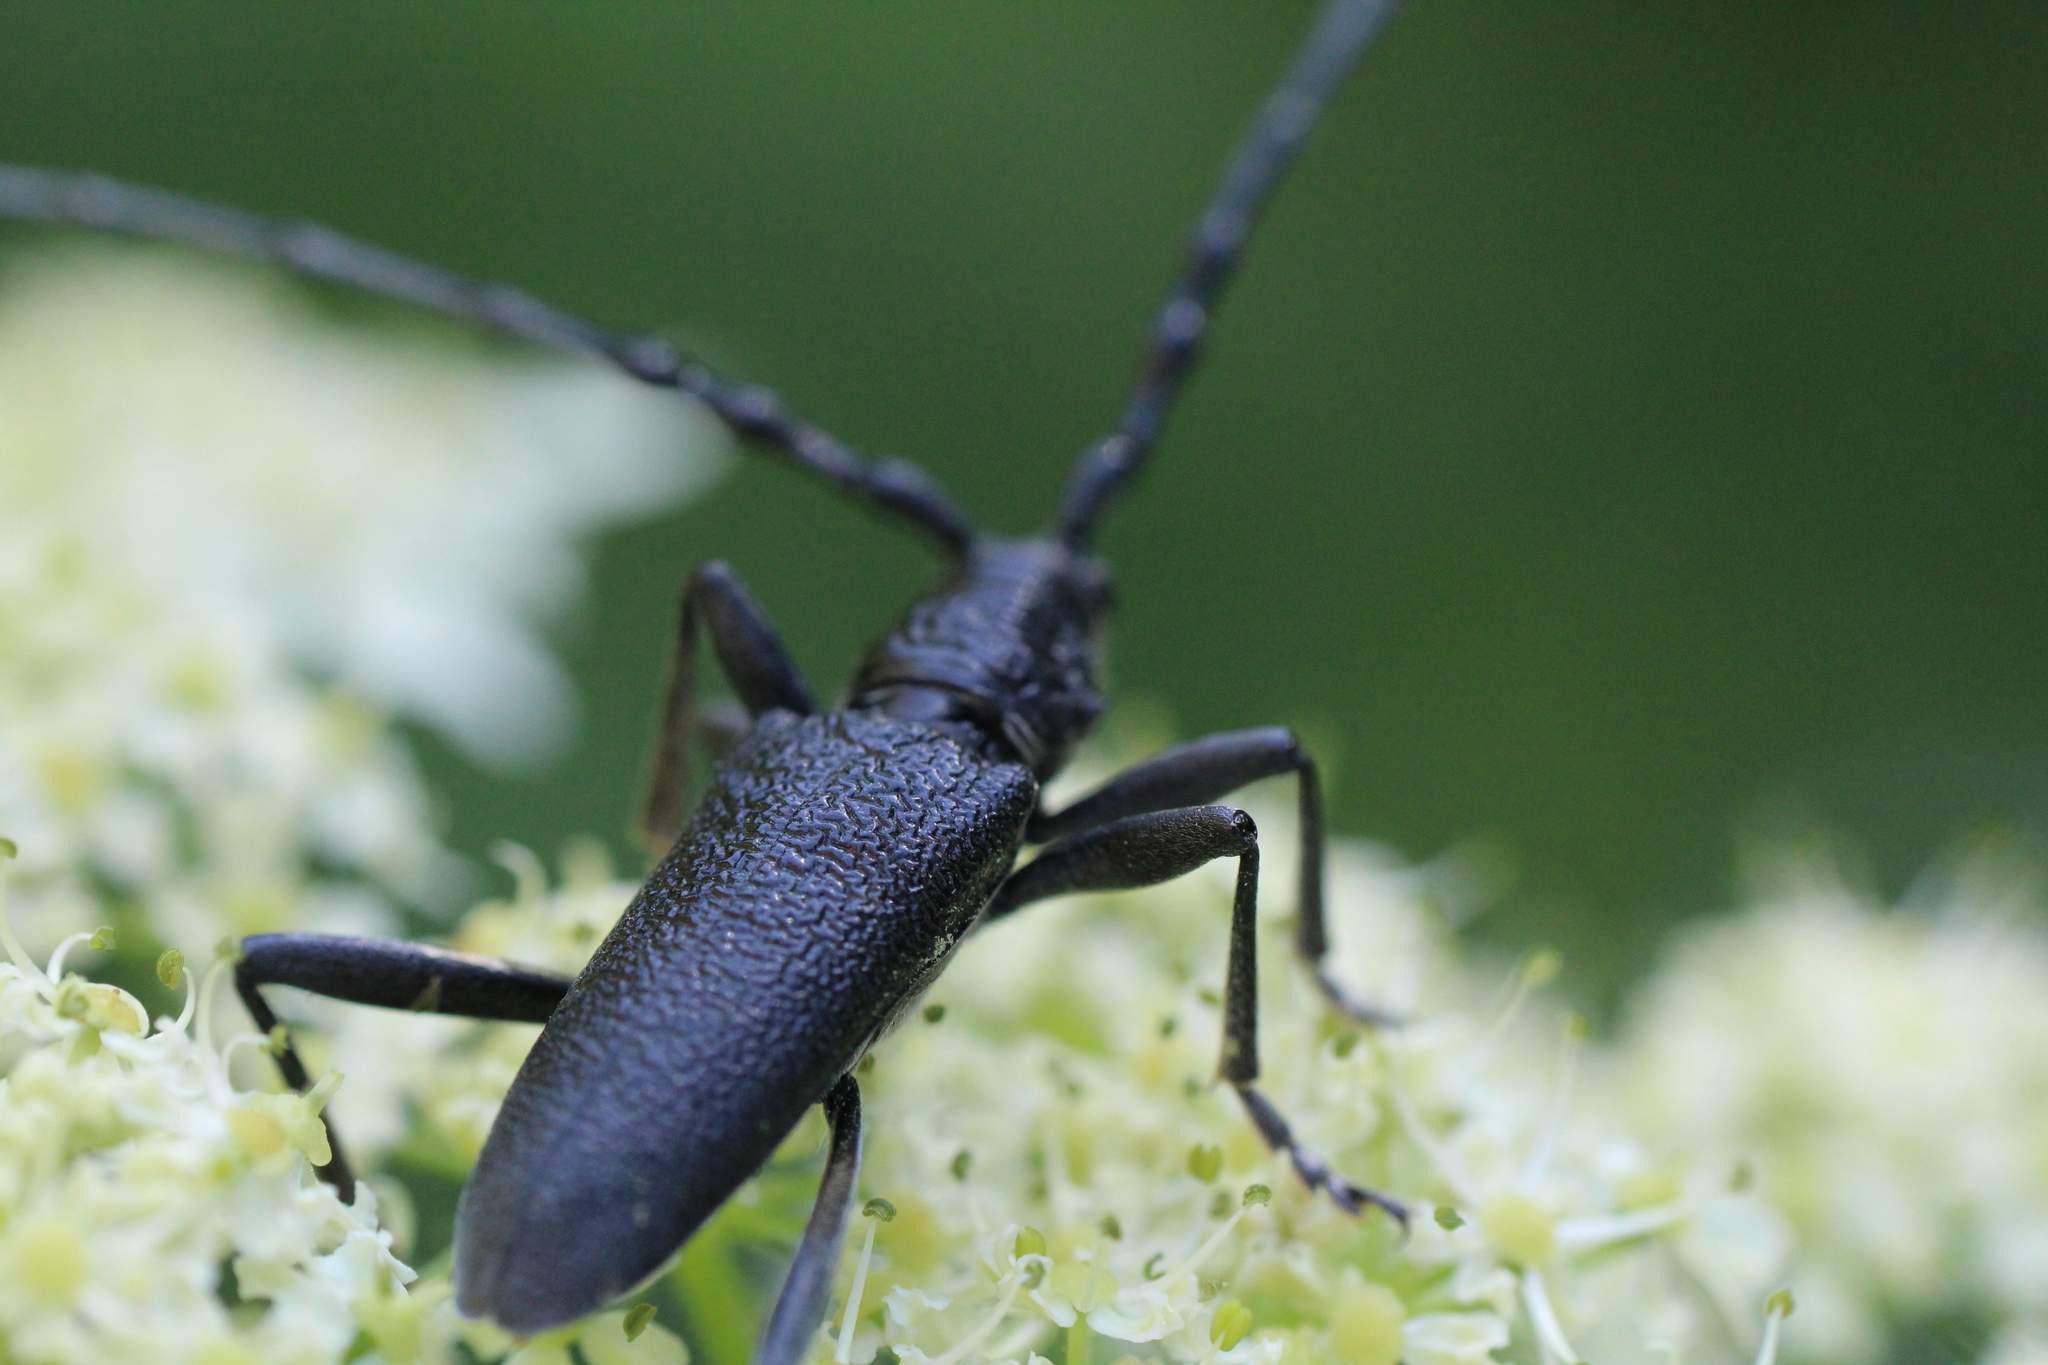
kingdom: Animalia
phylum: Arthropoda
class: Insecta
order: Coleoptera
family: Cerambycidae
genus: Cerambyx
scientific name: Cerambyx scopolii
